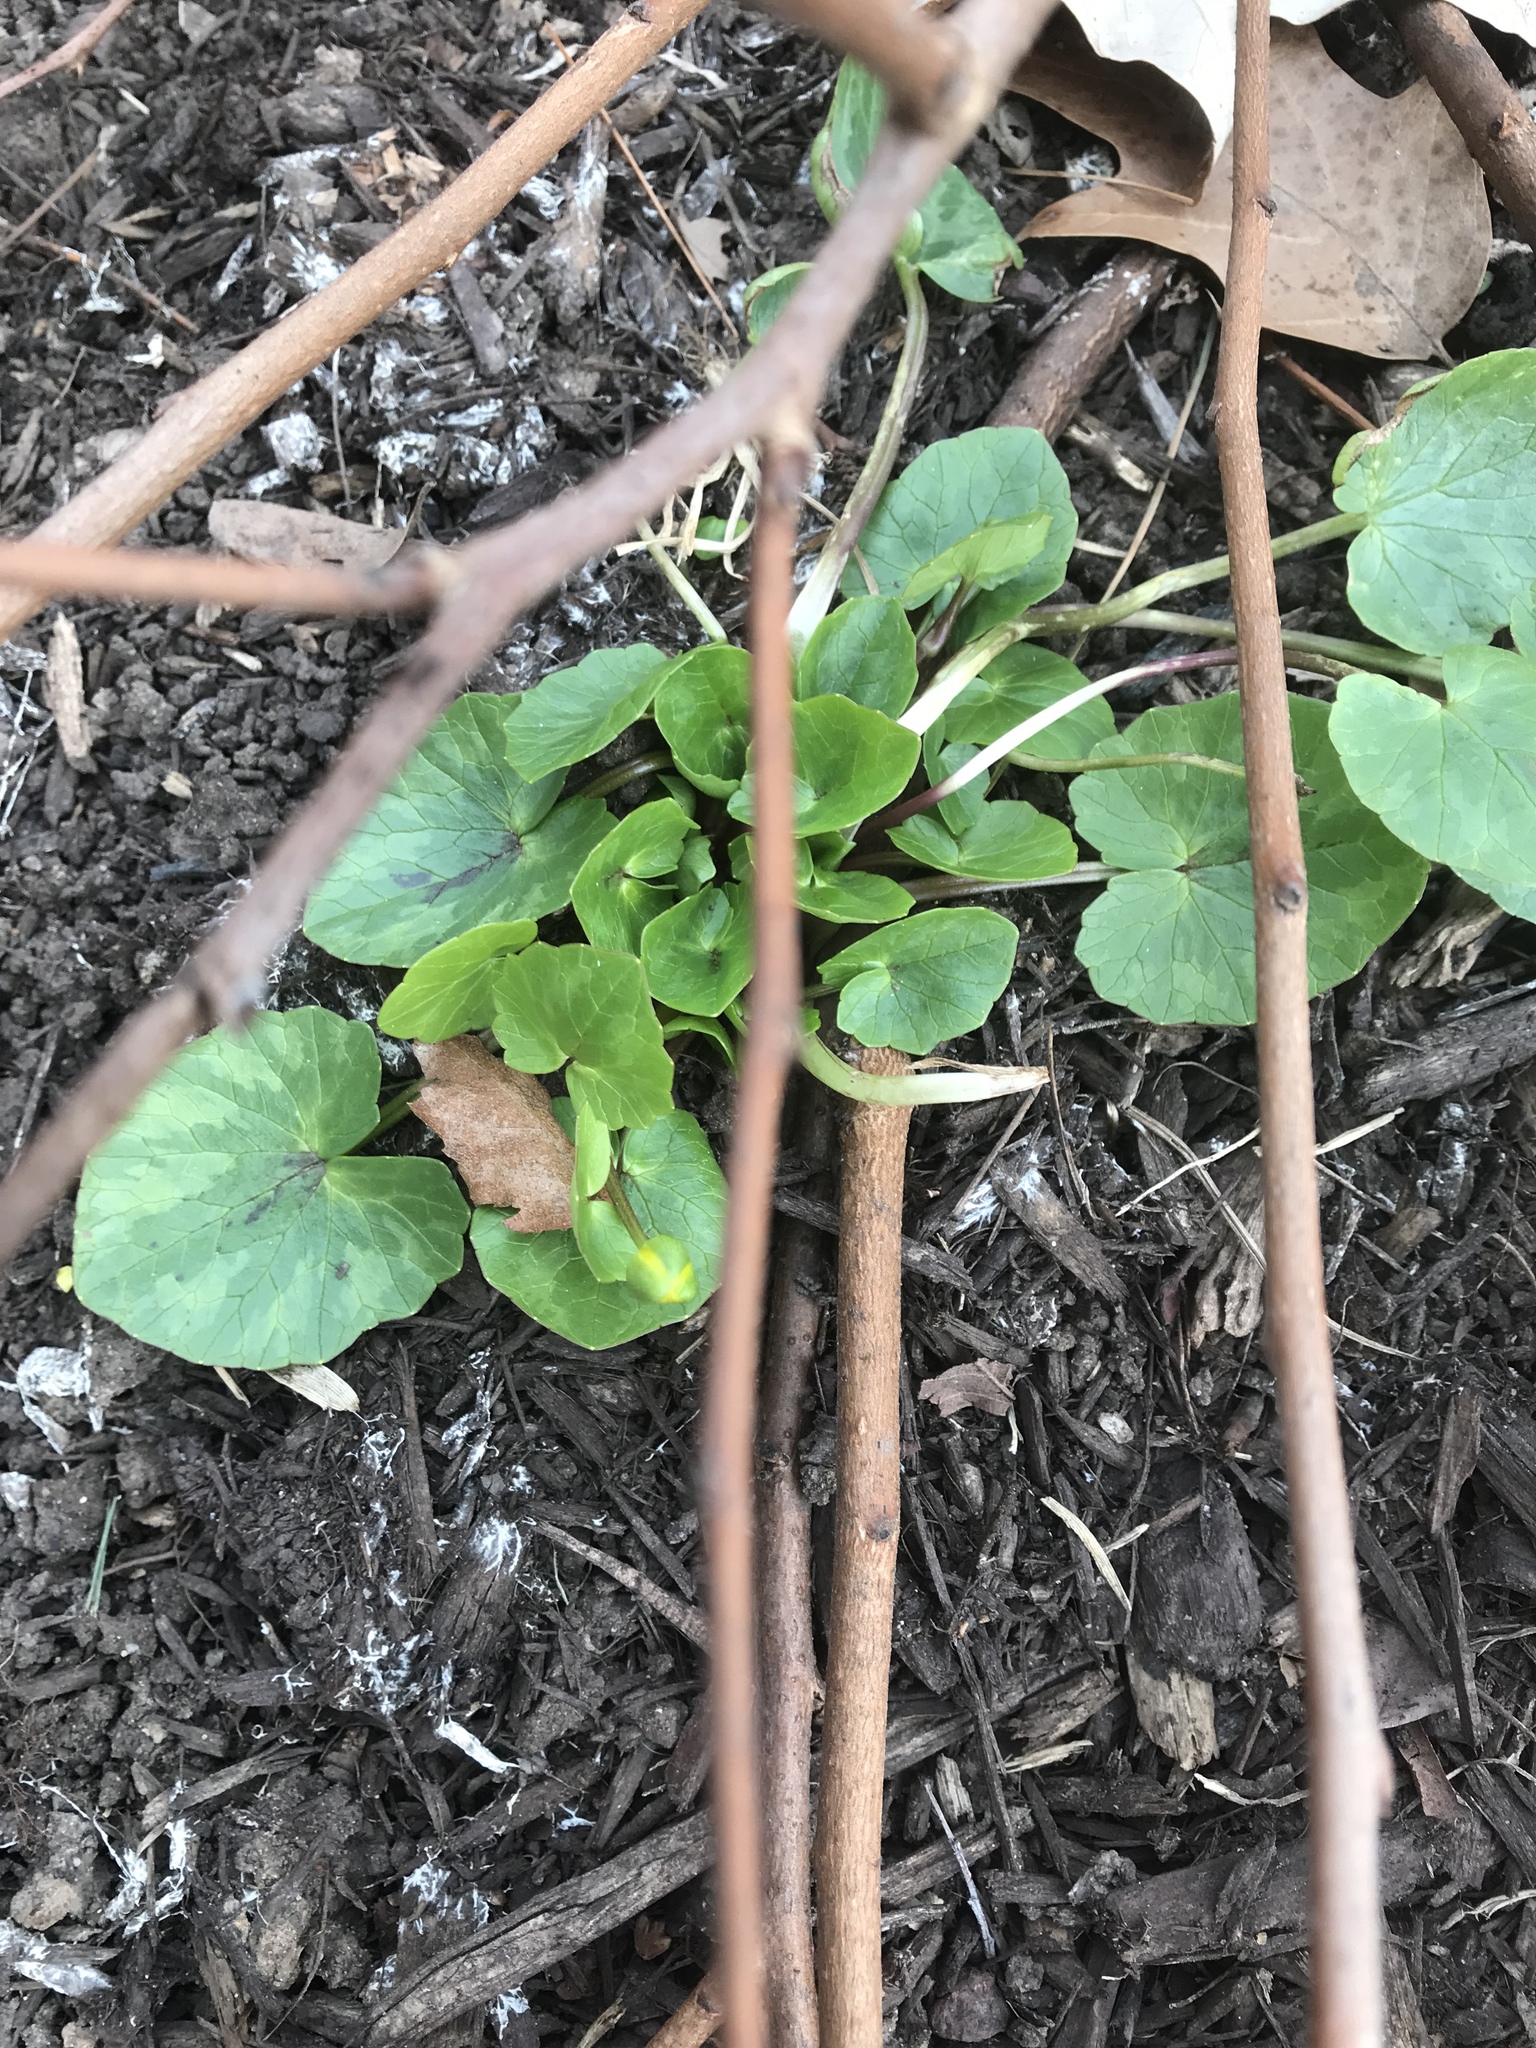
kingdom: Plantae
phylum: Tracheophyta
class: Magnoliopsida
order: Ranunculales
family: Ranunculaceae
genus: Ficaria
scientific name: Ficaria verna
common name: Lesser celandine
